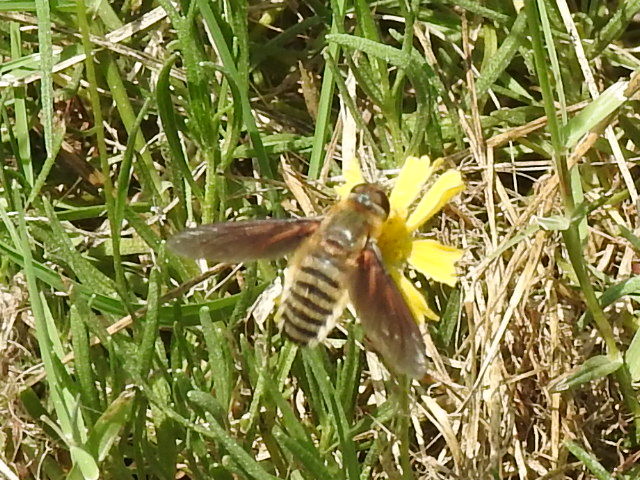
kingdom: Animalia
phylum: Arthropoda
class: Insecta
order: Diptera
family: Bombyliidae
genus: Poecilanthrax
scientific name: Poecilanthrax lucifer
